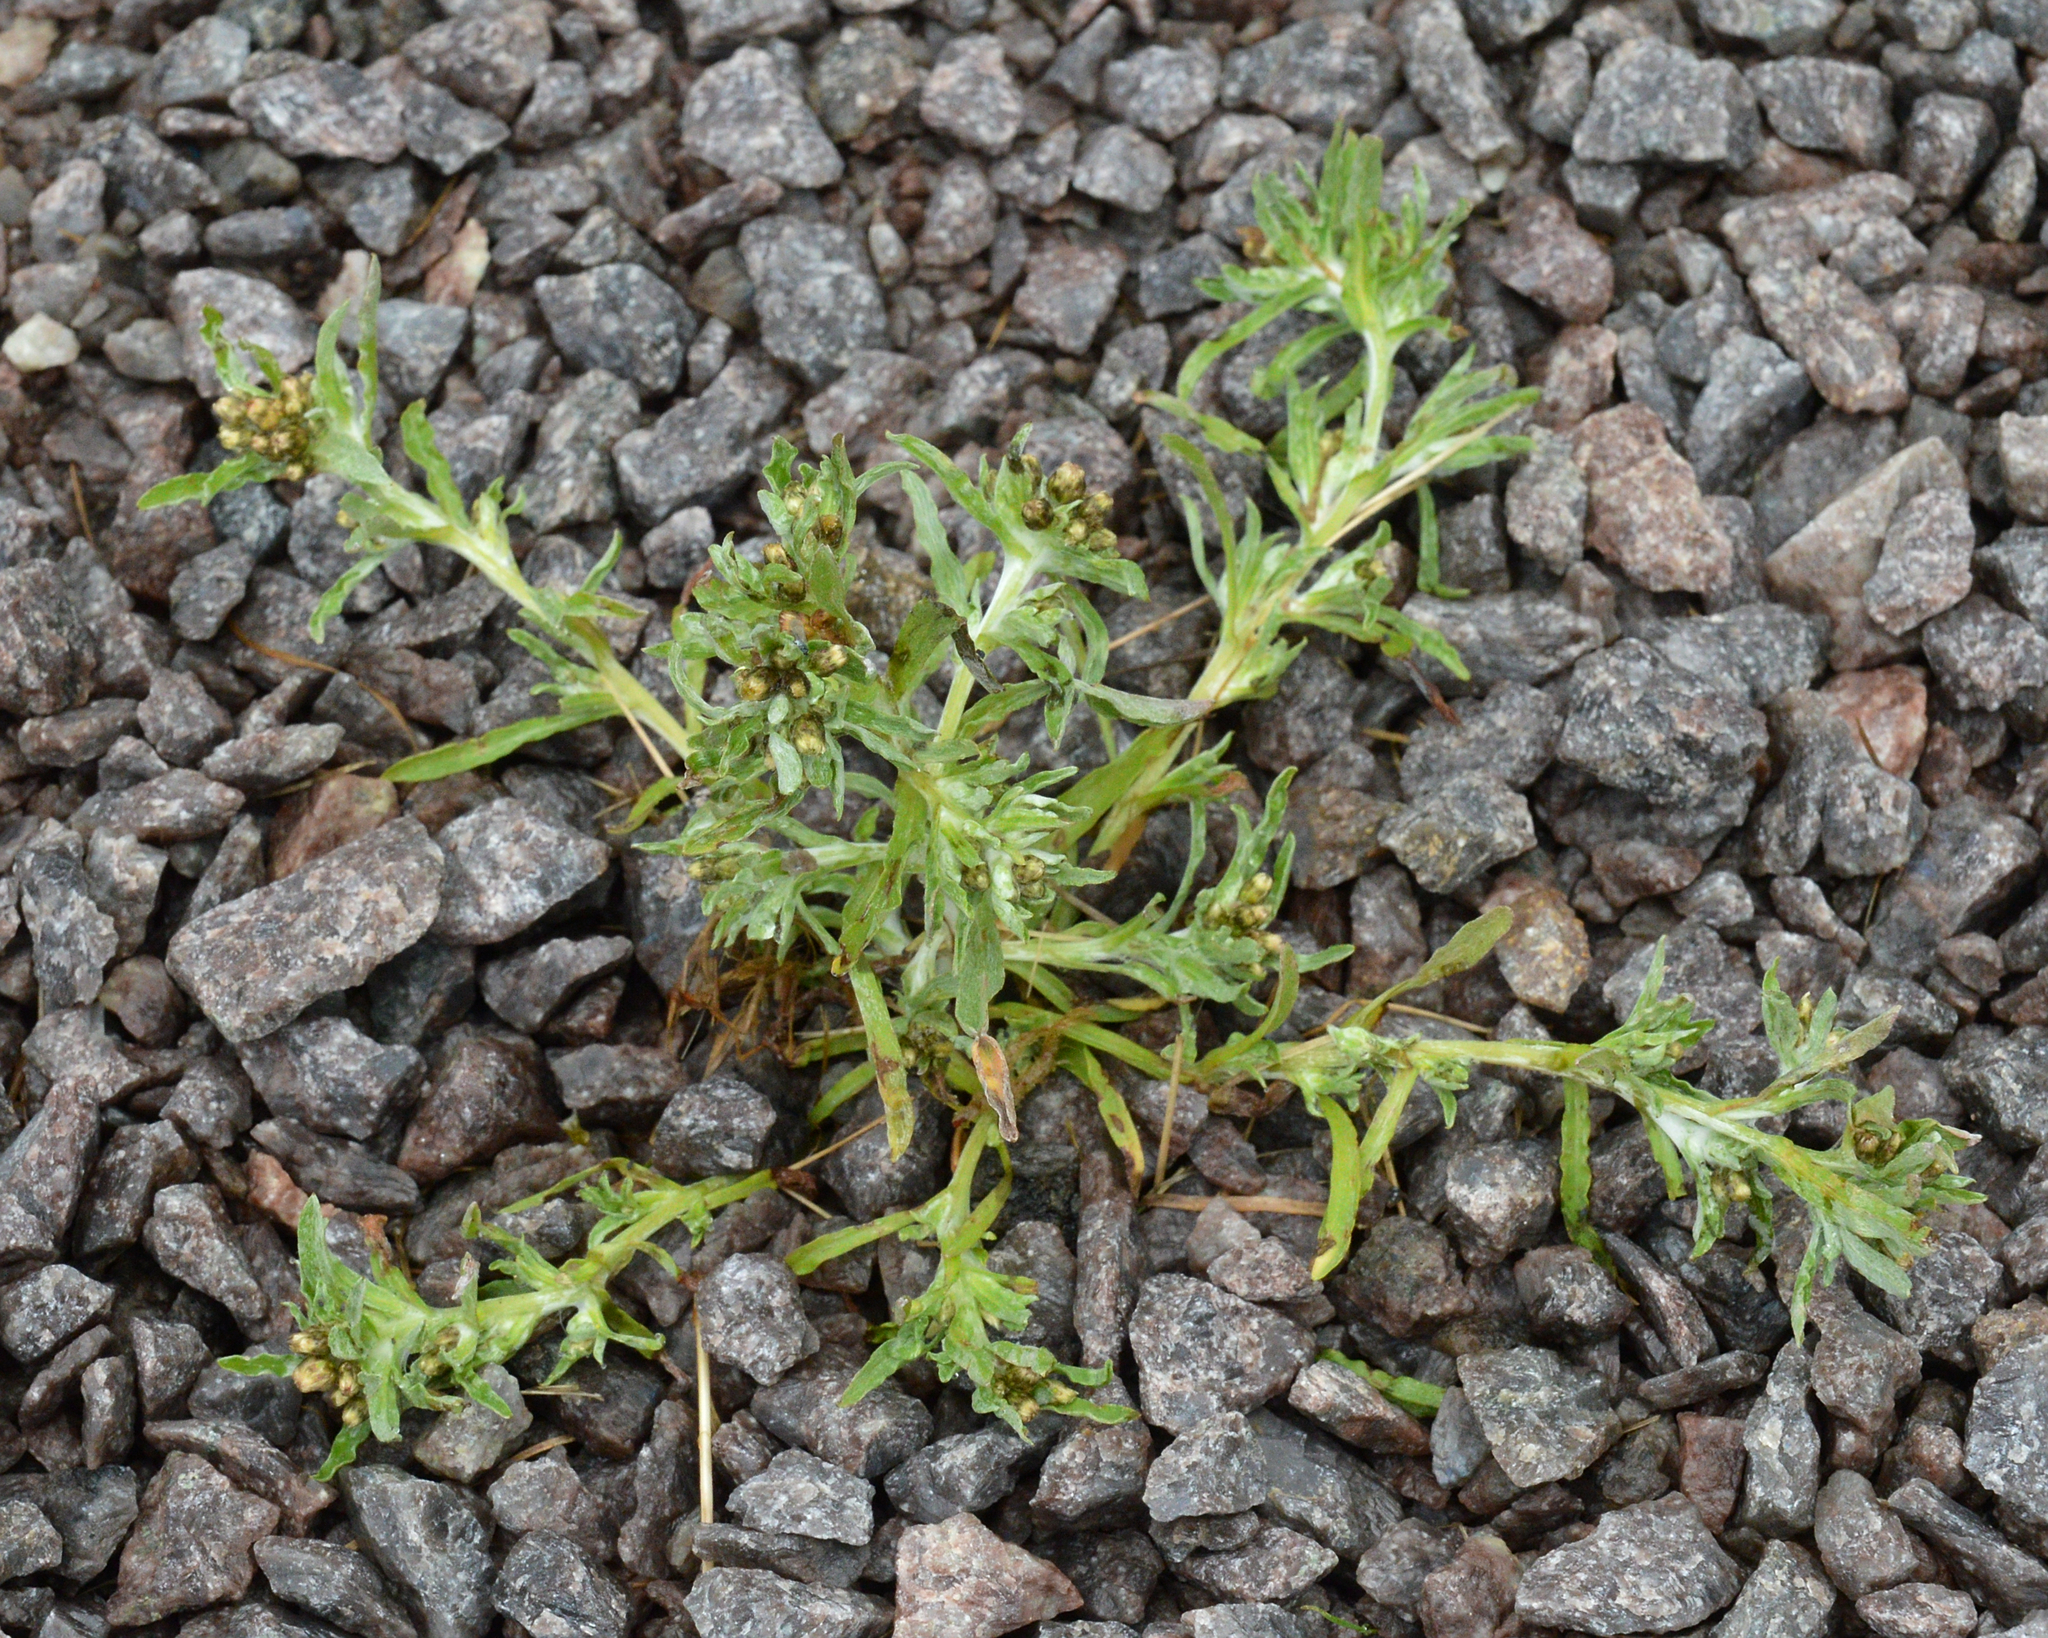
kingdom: Plantae
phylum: Tracheophyta
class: Magnoliopsida
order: Asterales
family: Asteraceae
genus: Gnaphalium
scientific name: Gnaphalium uliginosum
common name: Marsh cudweed
